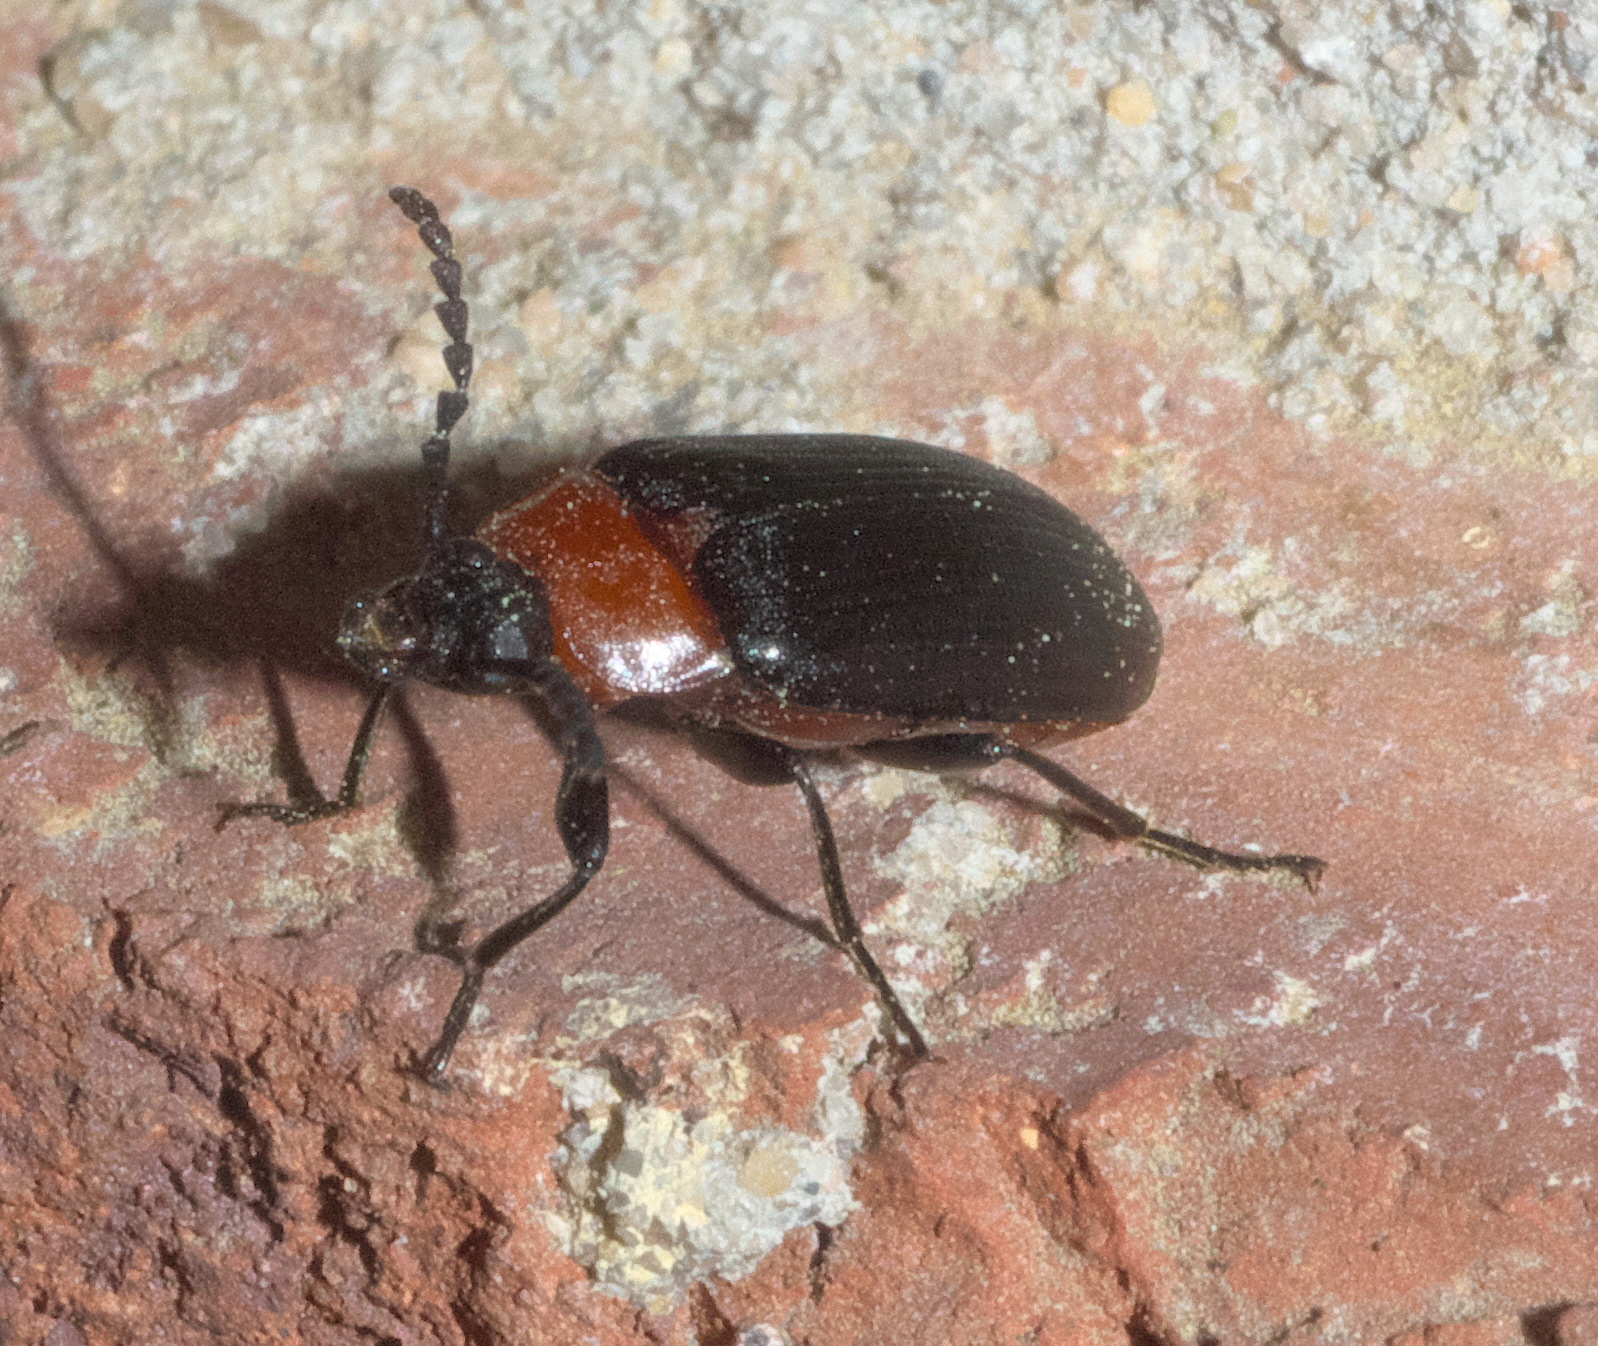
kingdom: Animalia
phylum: Arthropoda
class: Insecta
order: Coleoptera
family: Tenebrionidae
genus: Chromatia
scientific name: Chromatia amoena
